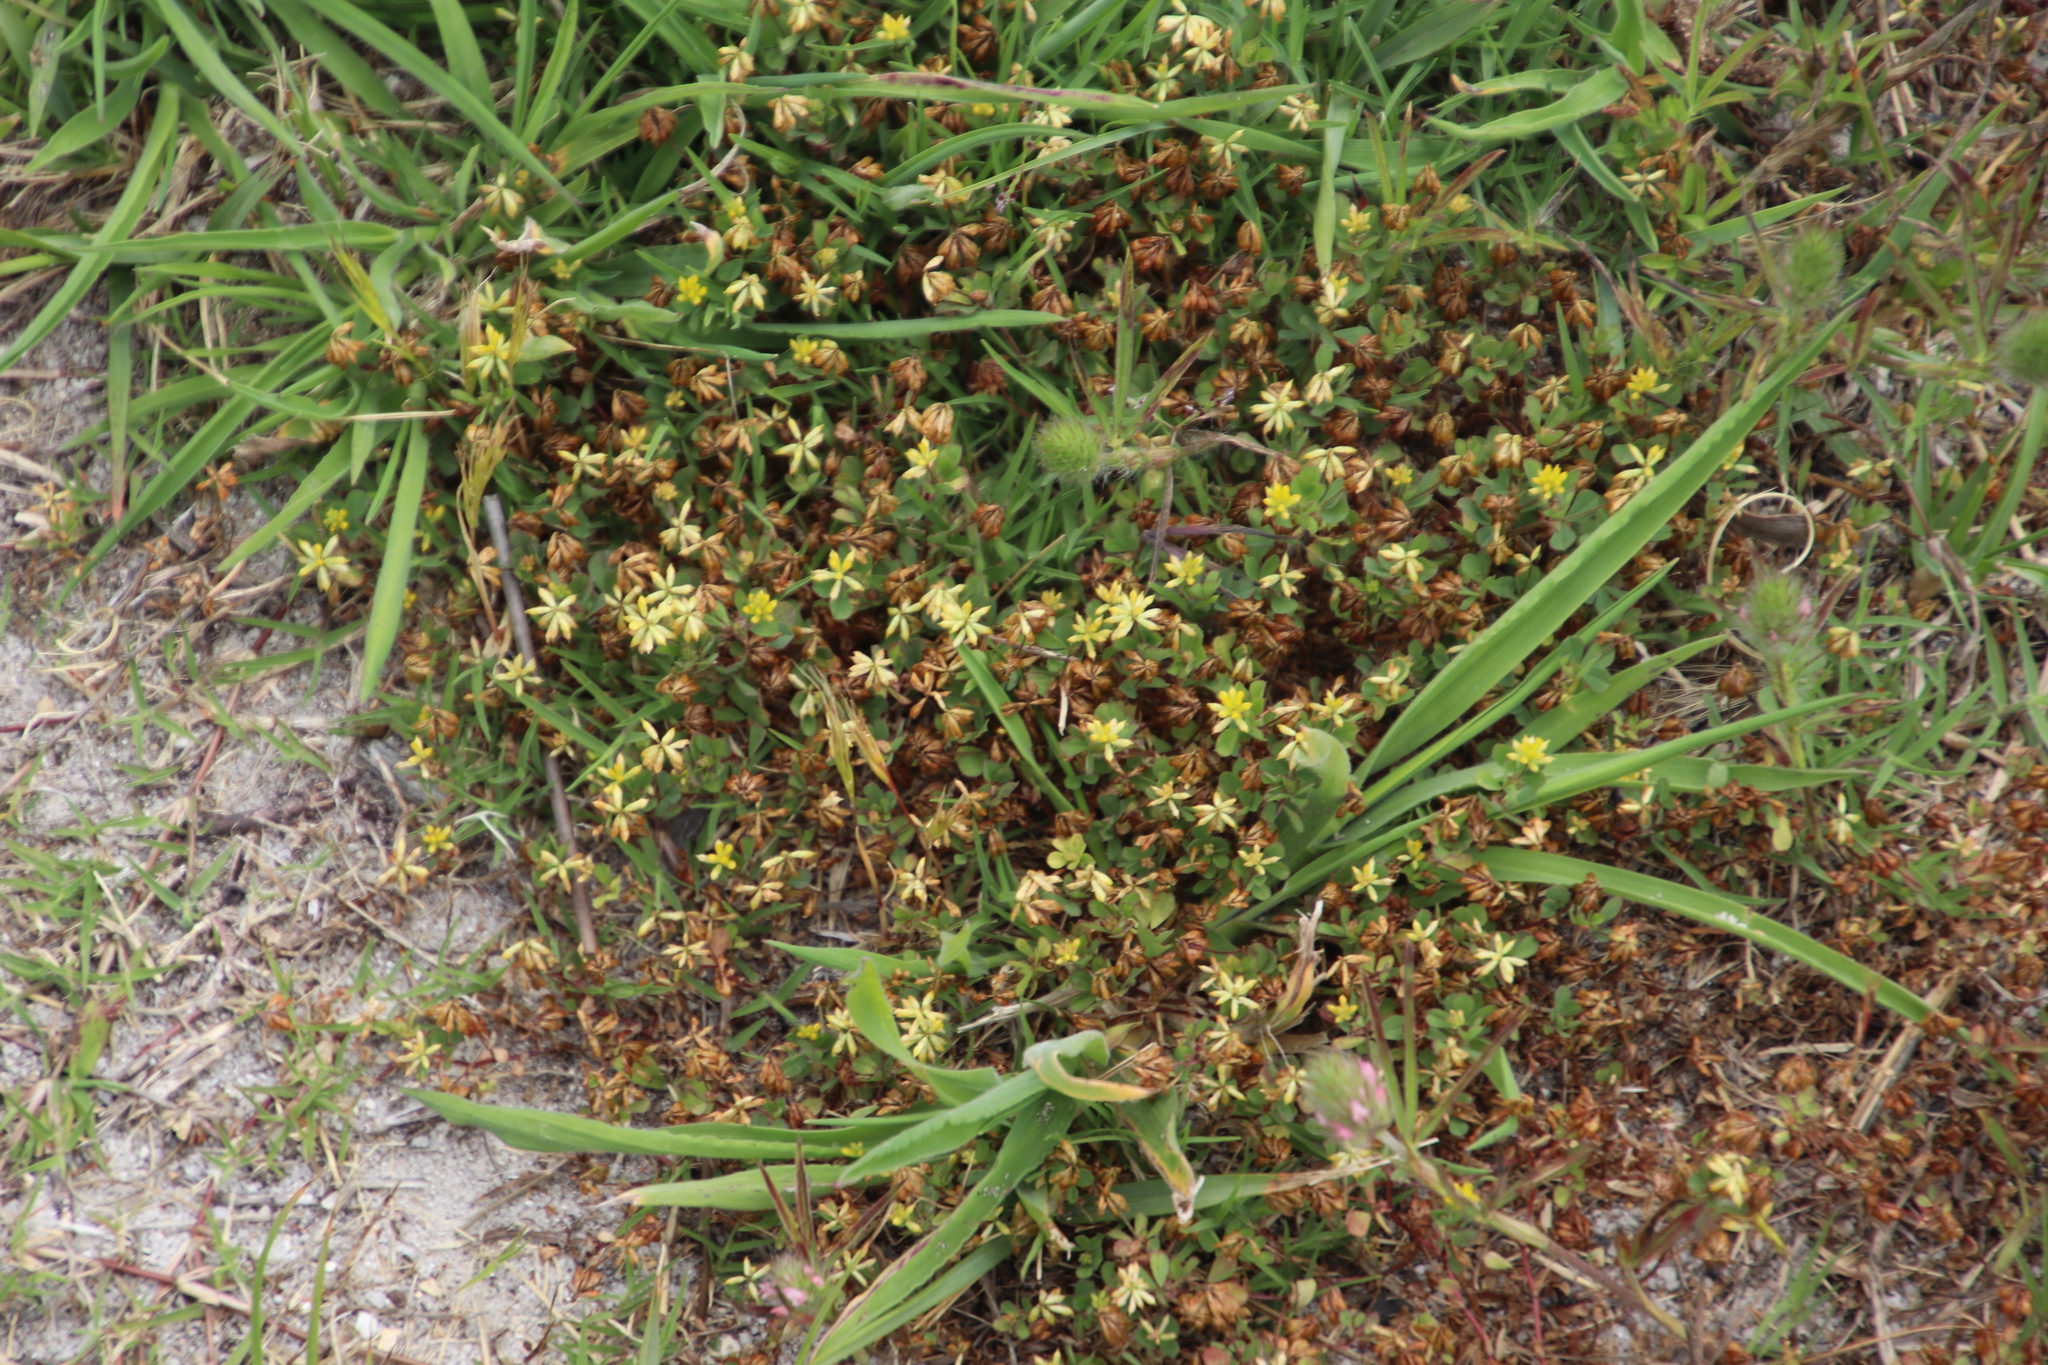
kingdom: Plantae
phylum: Tracheophyta
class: Magnoliopsida
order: Fabales
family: Fabaceae
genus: Trifolium
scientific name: Trifolium dubium
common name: Suckling clover
